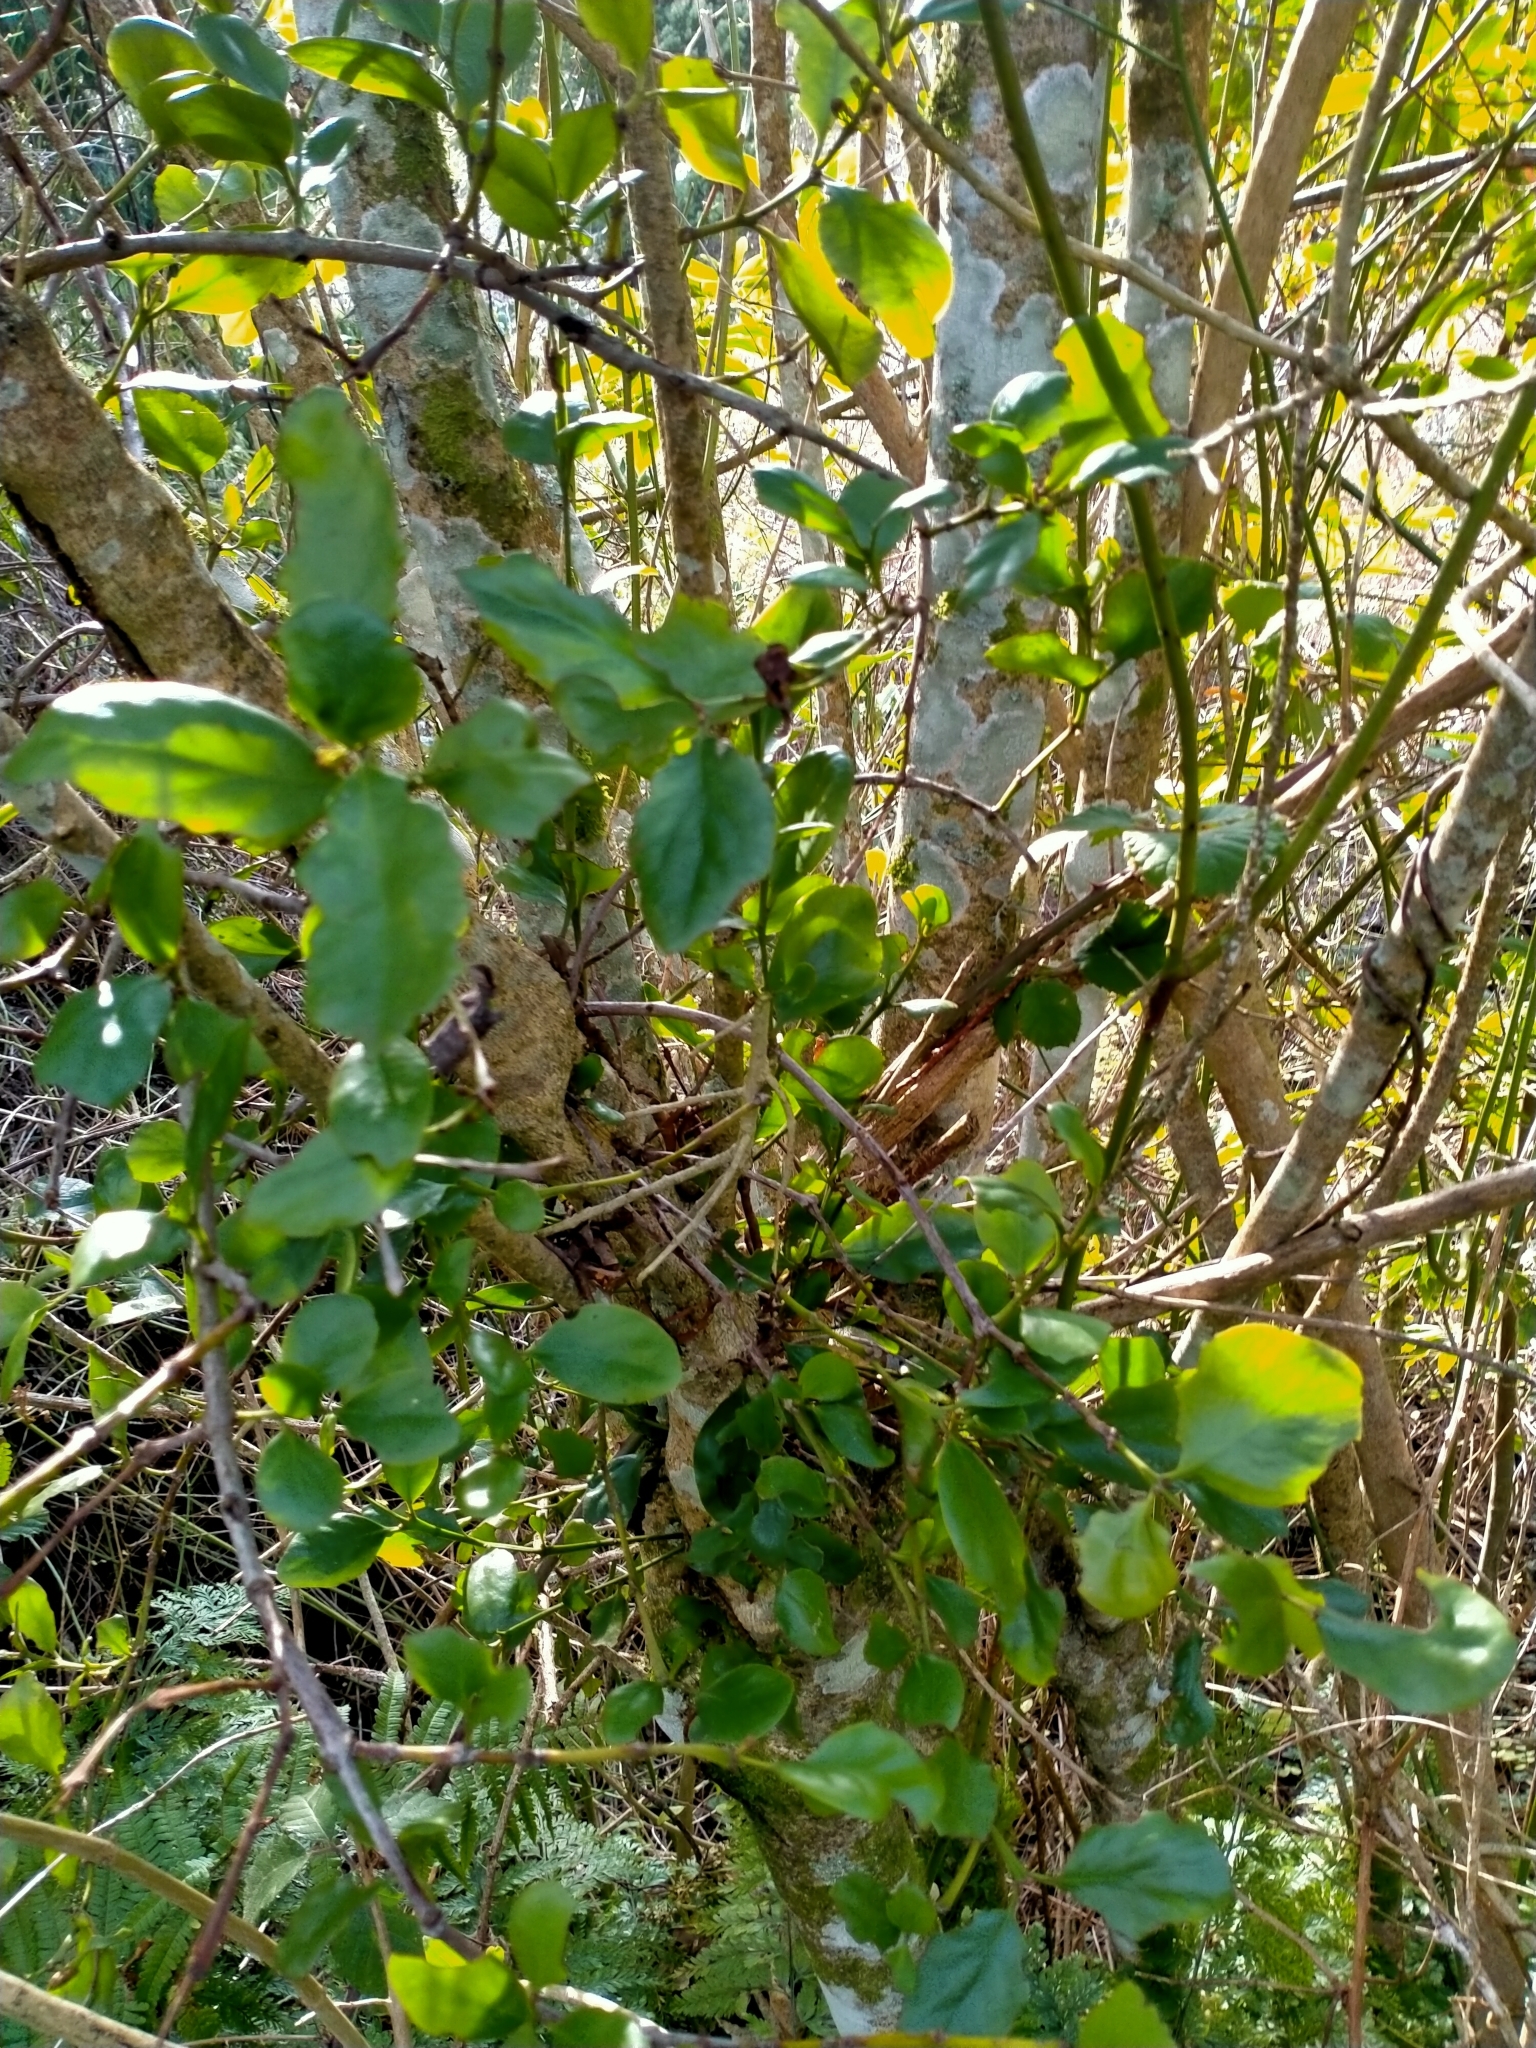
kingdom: Plantae
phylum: Tracheophyta
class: Magnoliopsida
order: Santalales
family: Loranthaceae
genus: Ileostylus
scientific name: Ileostylus micranthus
